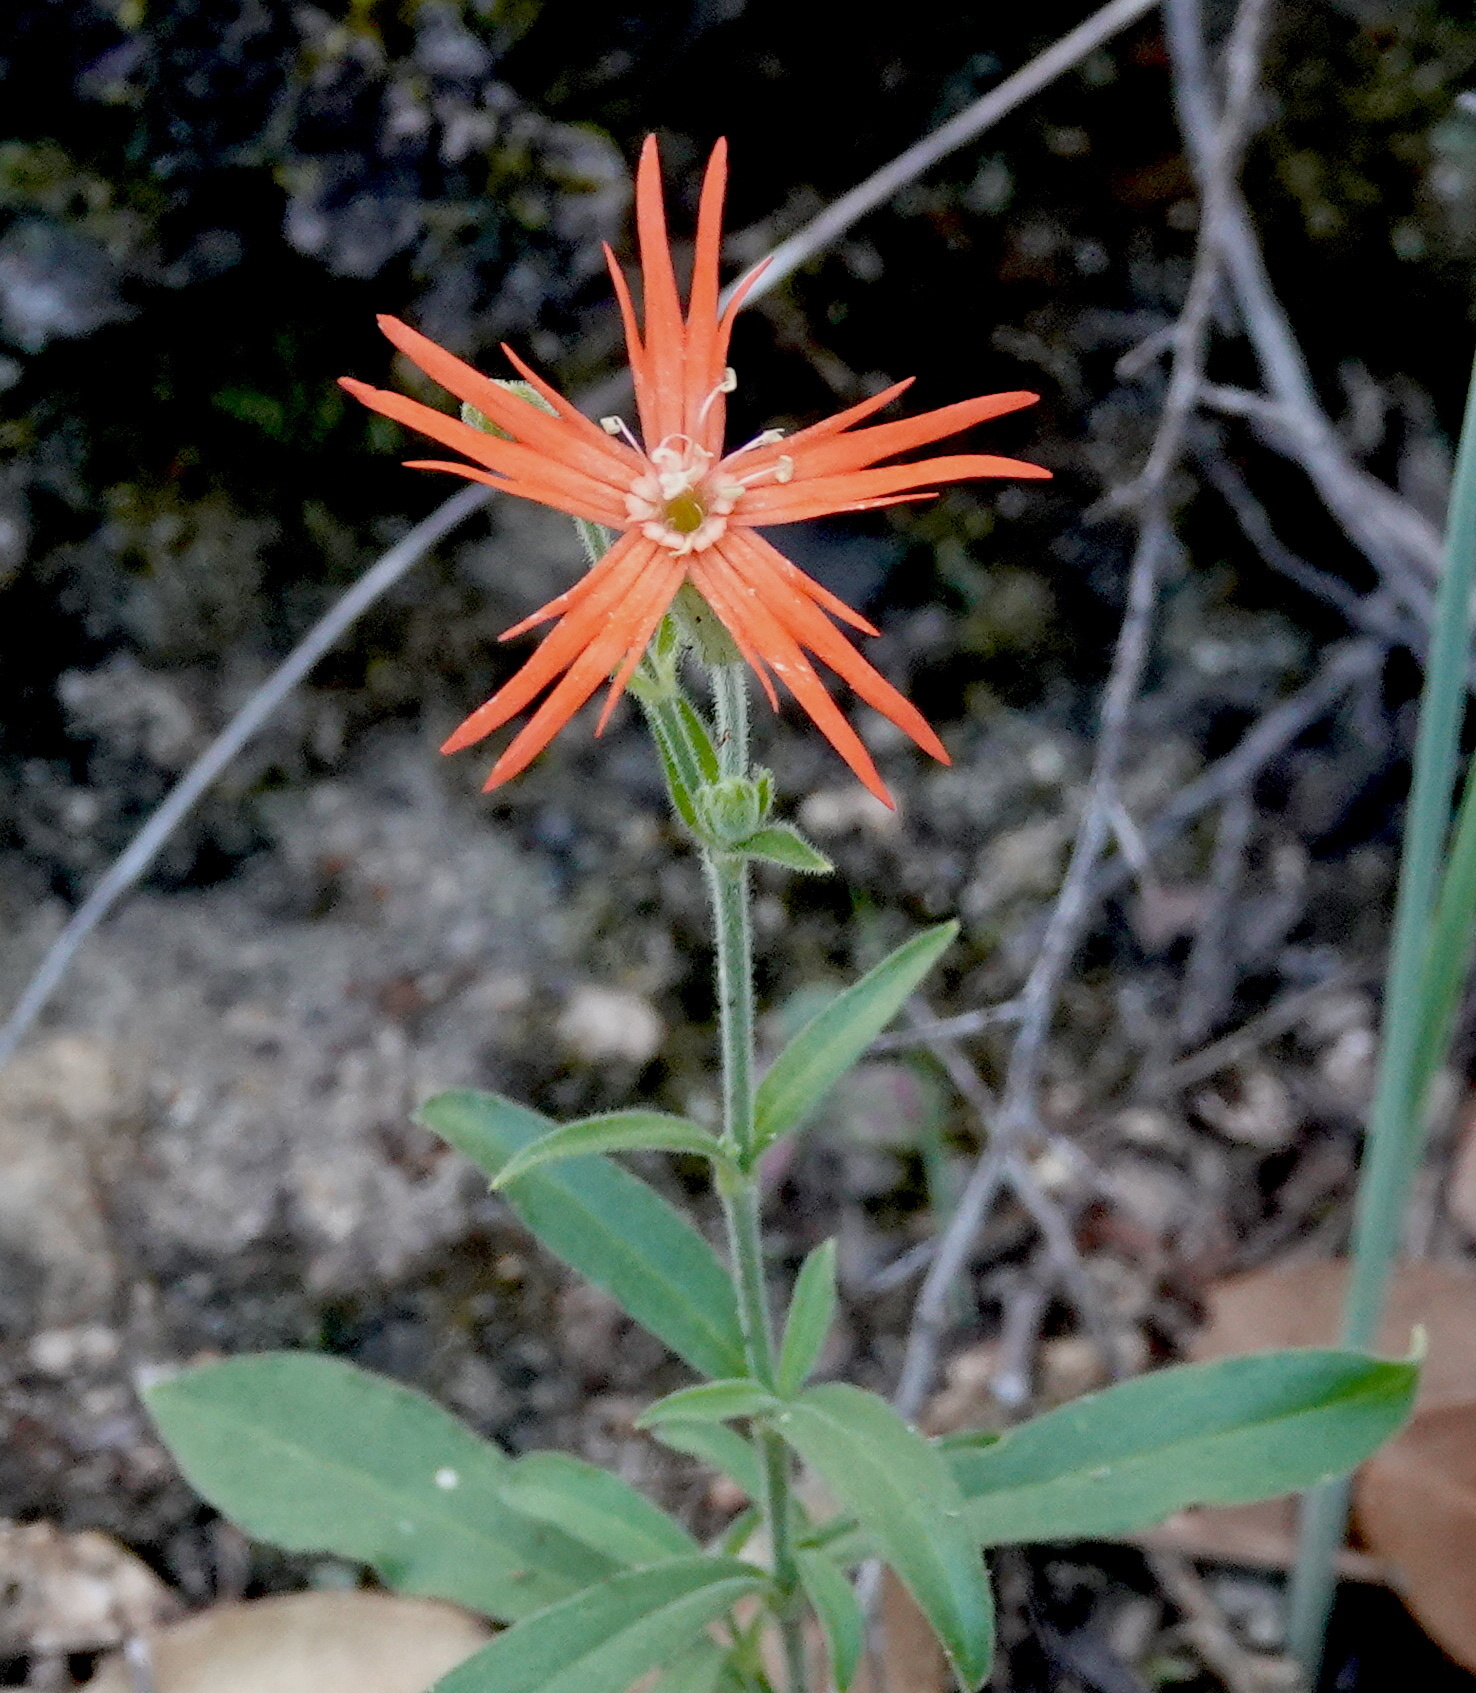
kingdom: Plantae
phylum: Tracheophyta
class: Magnoliopsida
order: Caryophyllales
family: Caryophyllaceae
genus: Silene
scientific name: Silene laciniata
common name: Indian-pink
